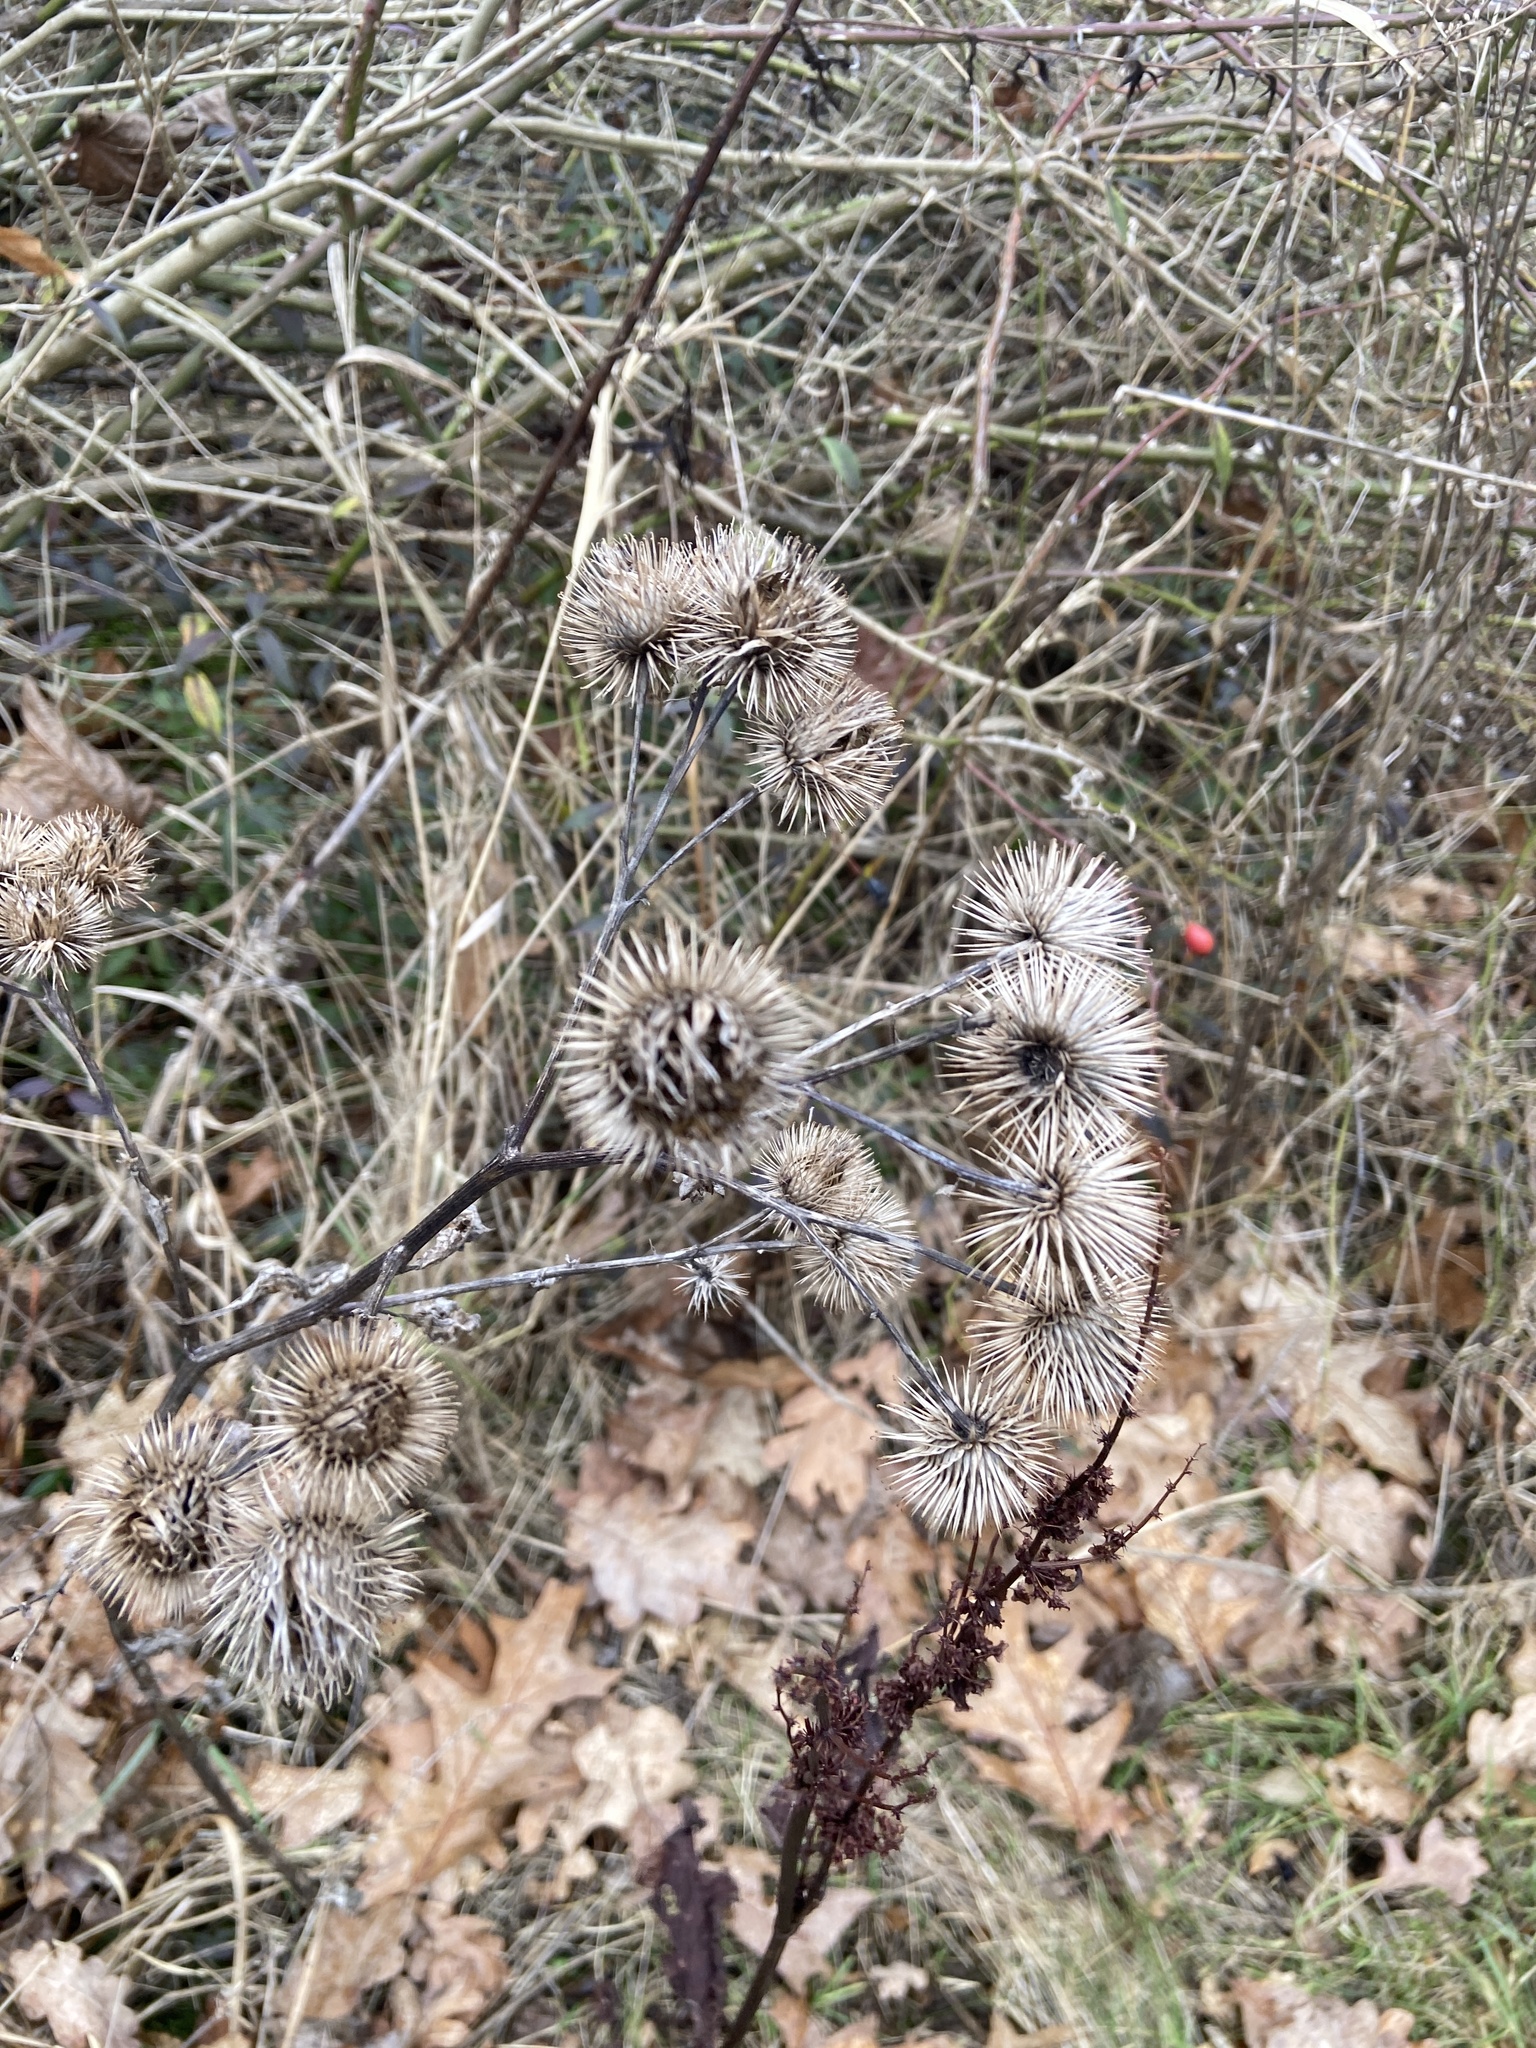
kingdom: Plantae
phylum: Tracheophyta
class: Magnoliopsida
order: Asterales
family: Asteraceae
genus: Arctium
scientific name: Arctium lappa
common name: Greater burdock
